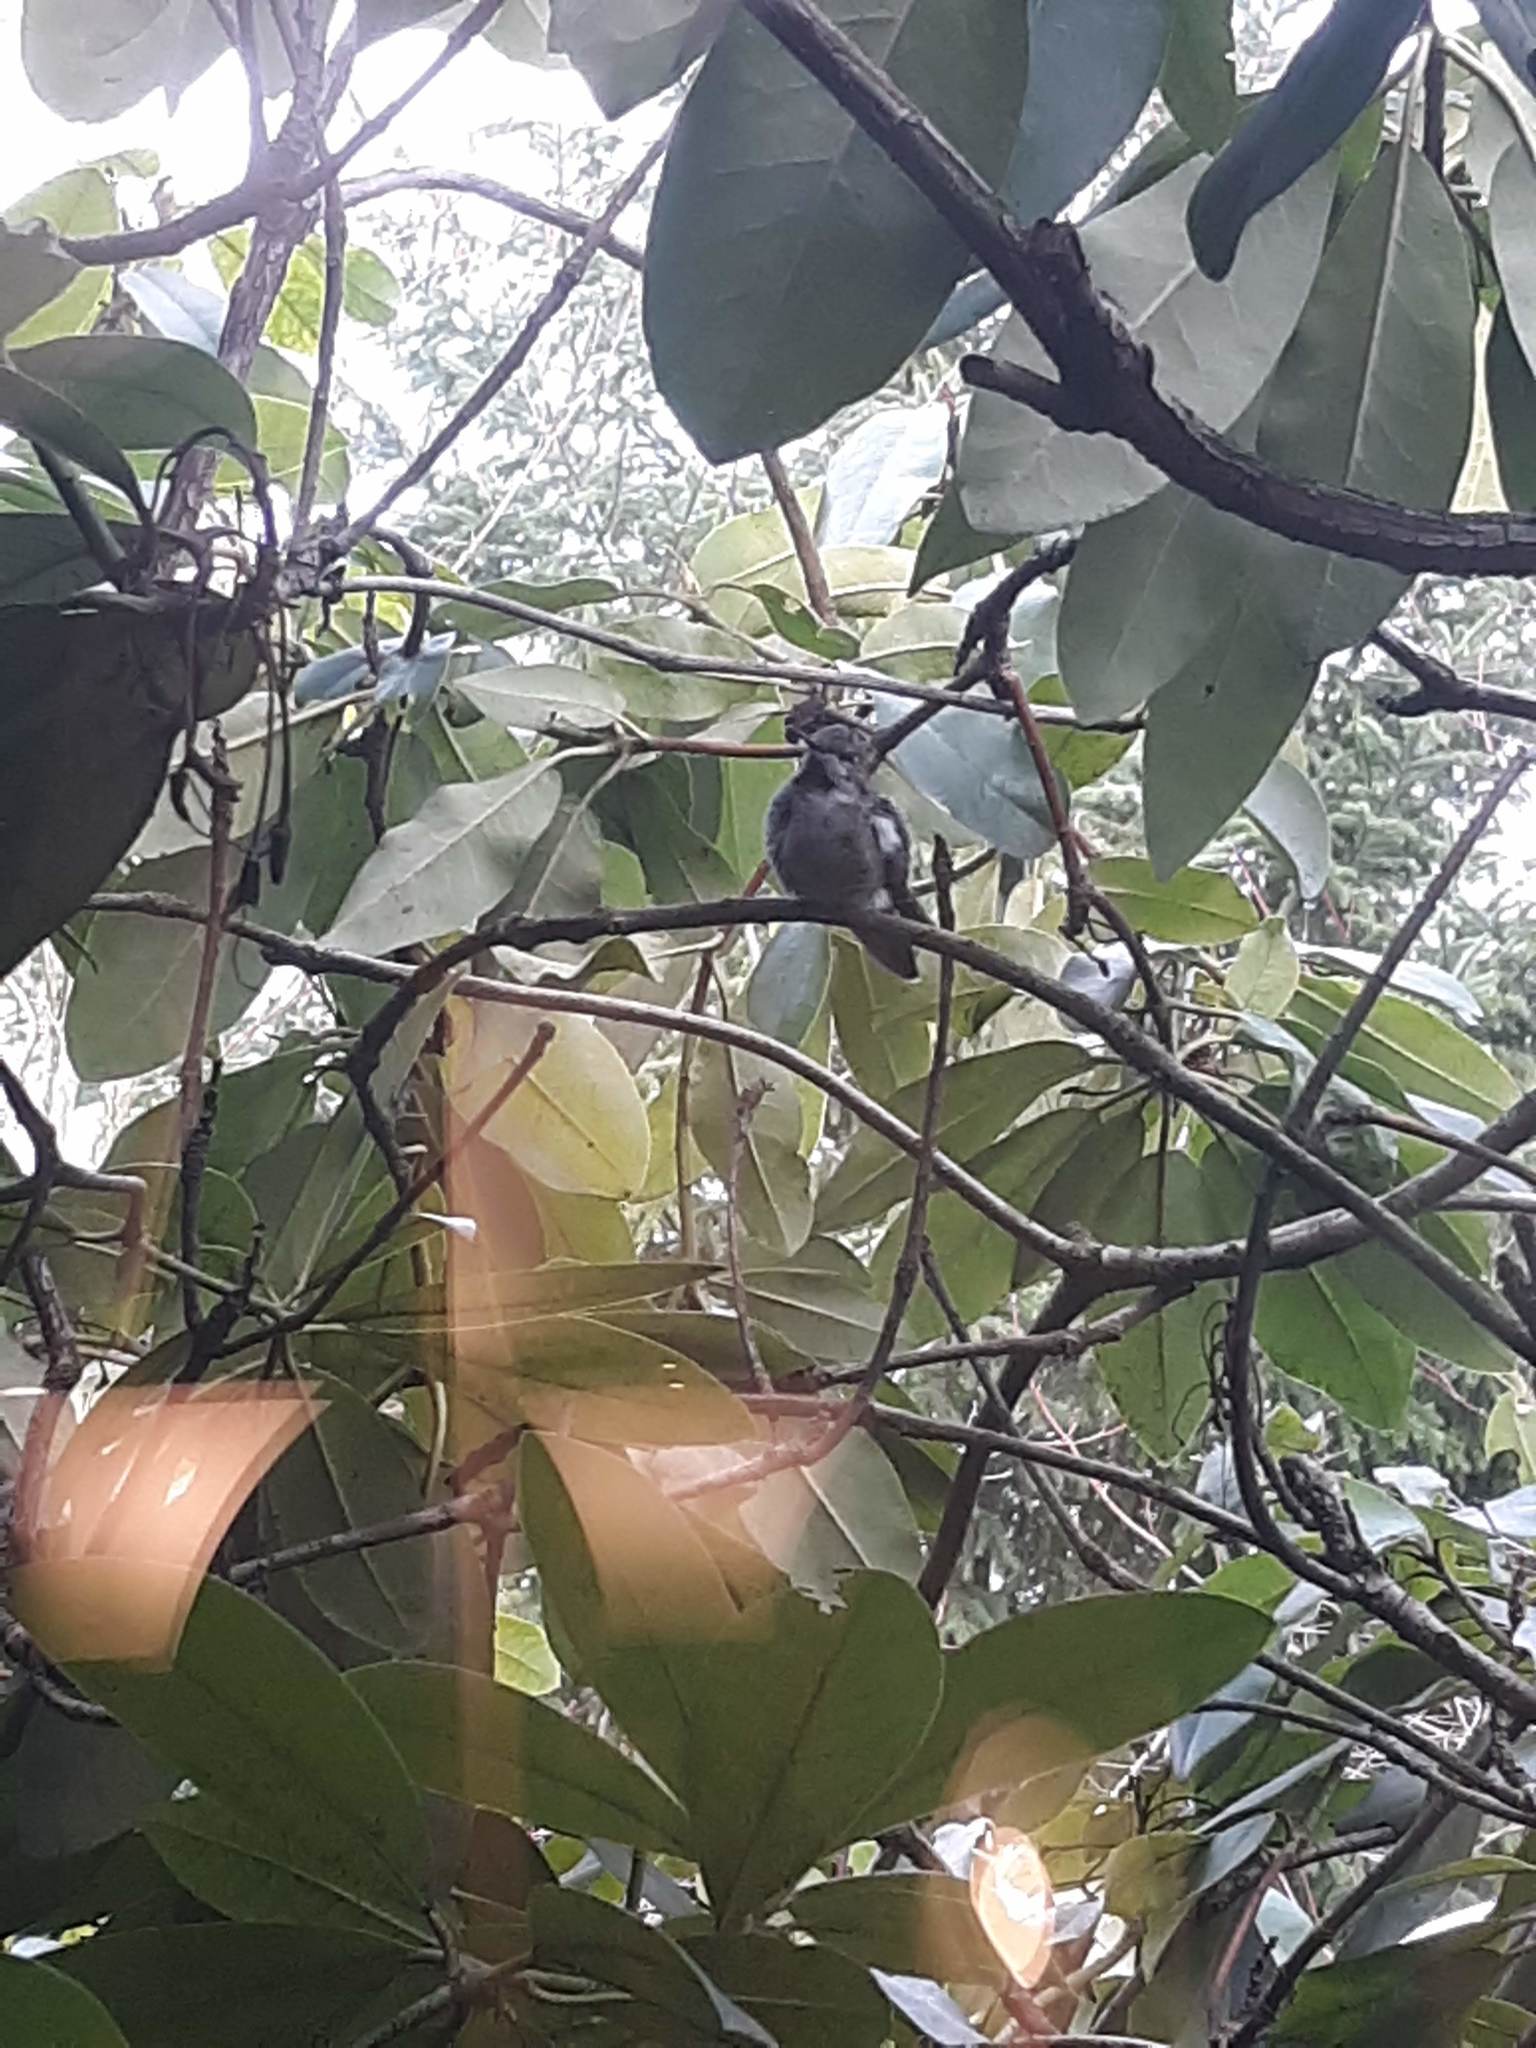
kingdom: Animalia
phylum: Chordata
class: Aves
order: Apodiformes
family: Trochilidae
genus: Calypte
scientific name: Calypte anna
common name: Anna's hummingbird
